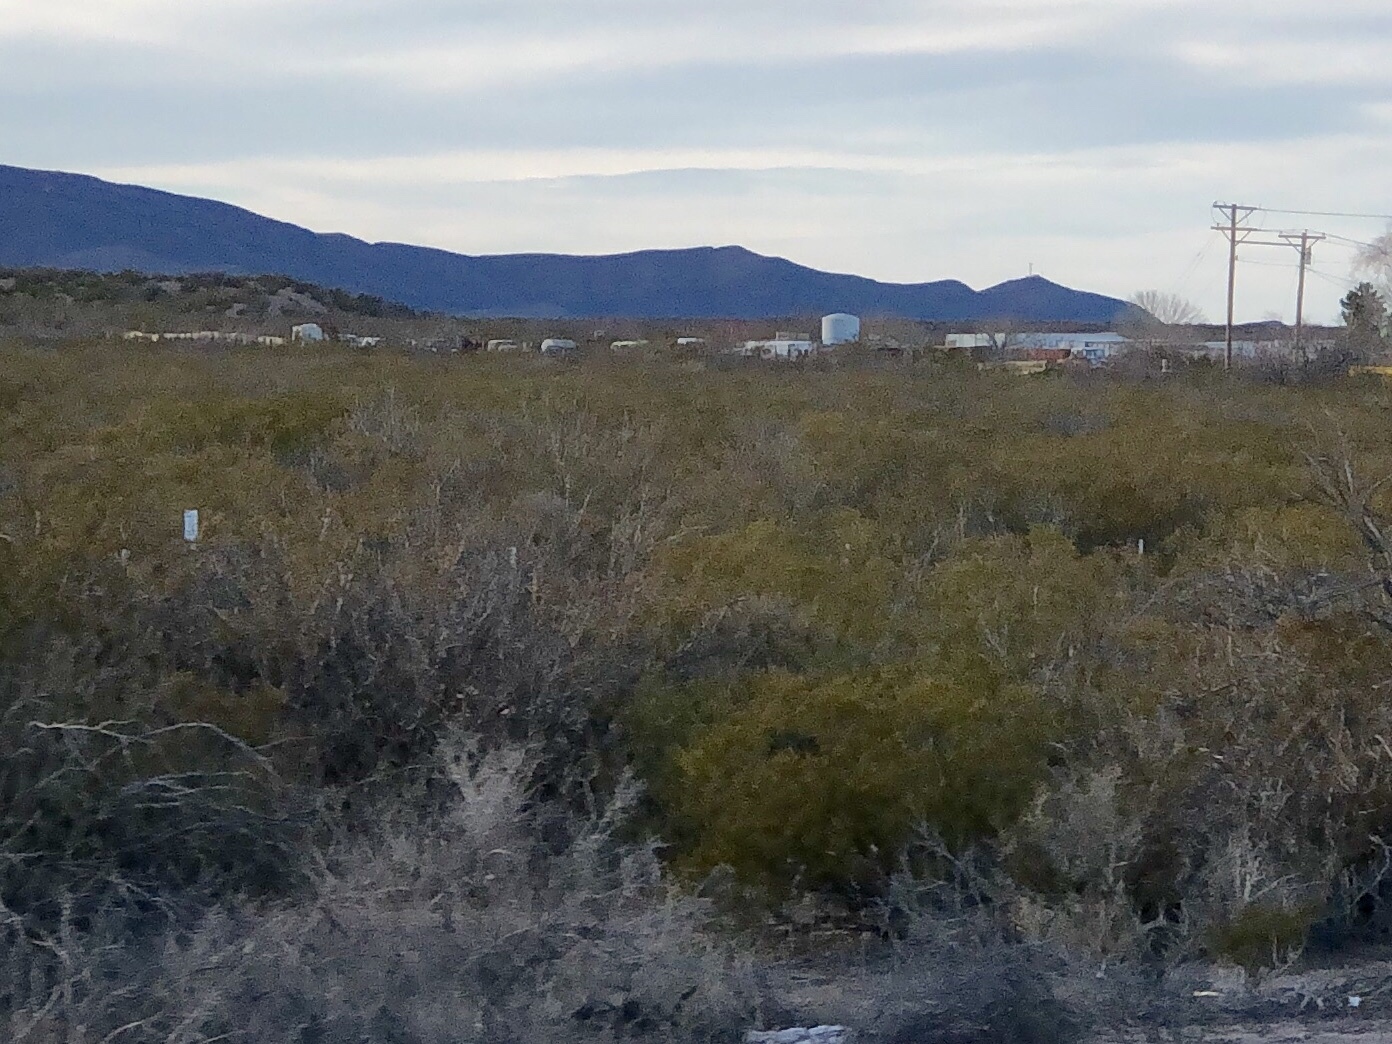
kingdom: Plantae
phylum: Tracheophyta
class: Magnoliopsida
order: Zygophyllales
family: Zygophyllaceae
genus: Larrea
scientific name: Larrea tridentata
